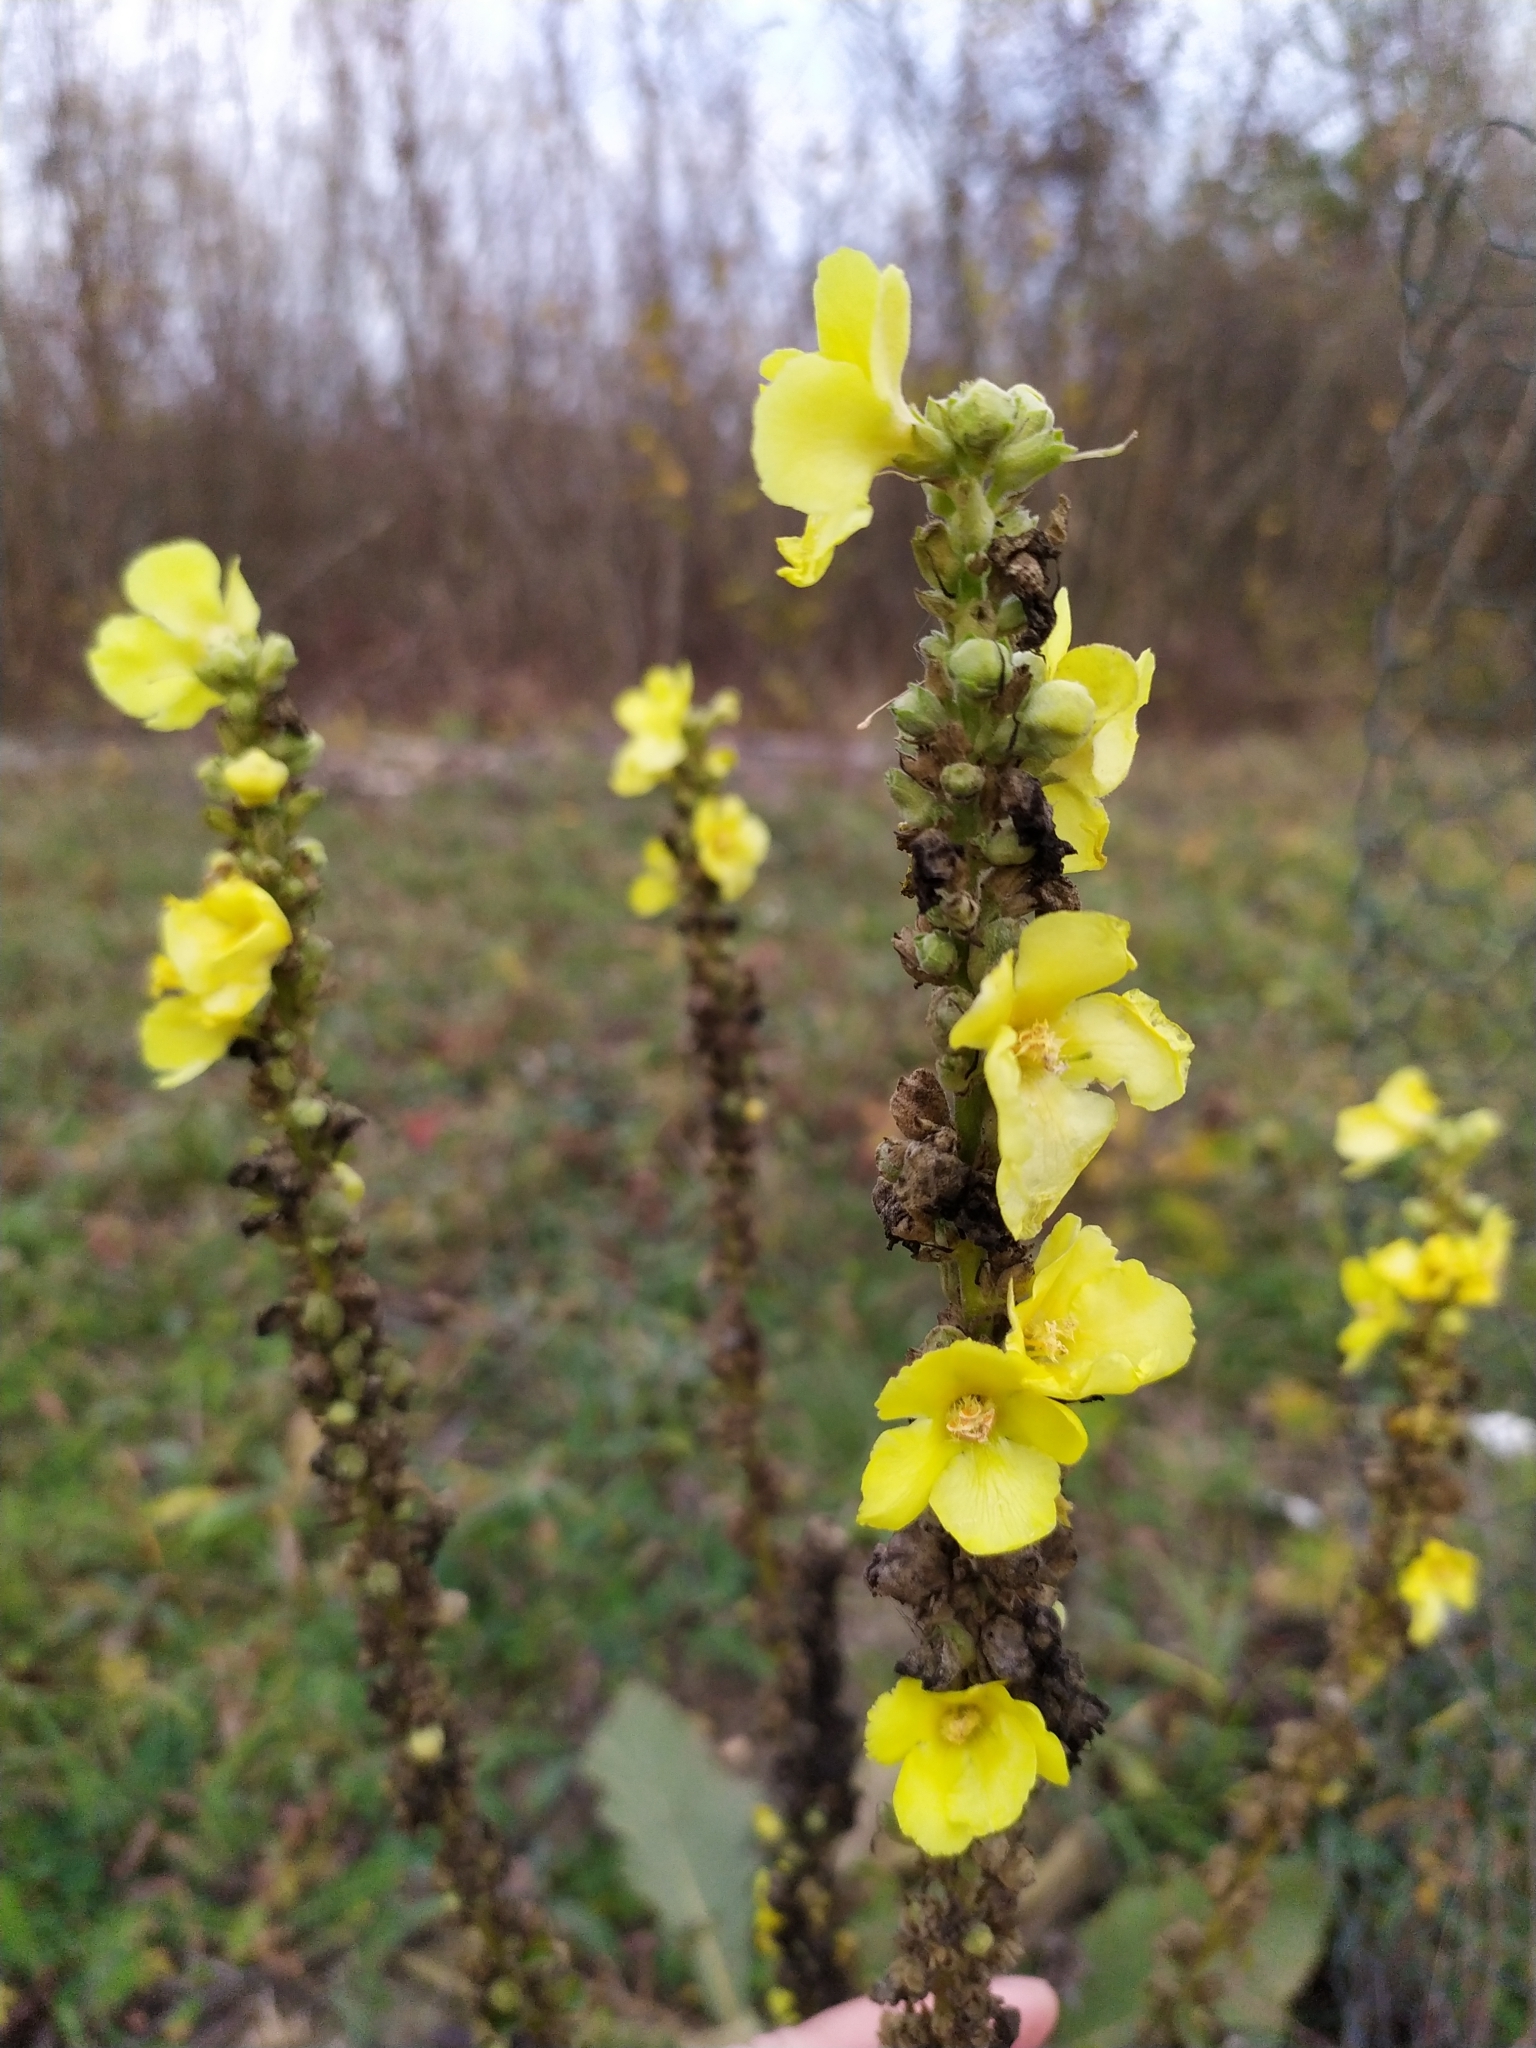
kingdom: Plantae
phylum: Tracheophyta
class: Magnoliopsida
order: Lamiales
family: Scrophulariaceae
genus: Verbascum
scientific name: Verbascum phlomoides
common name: Orange mullein
